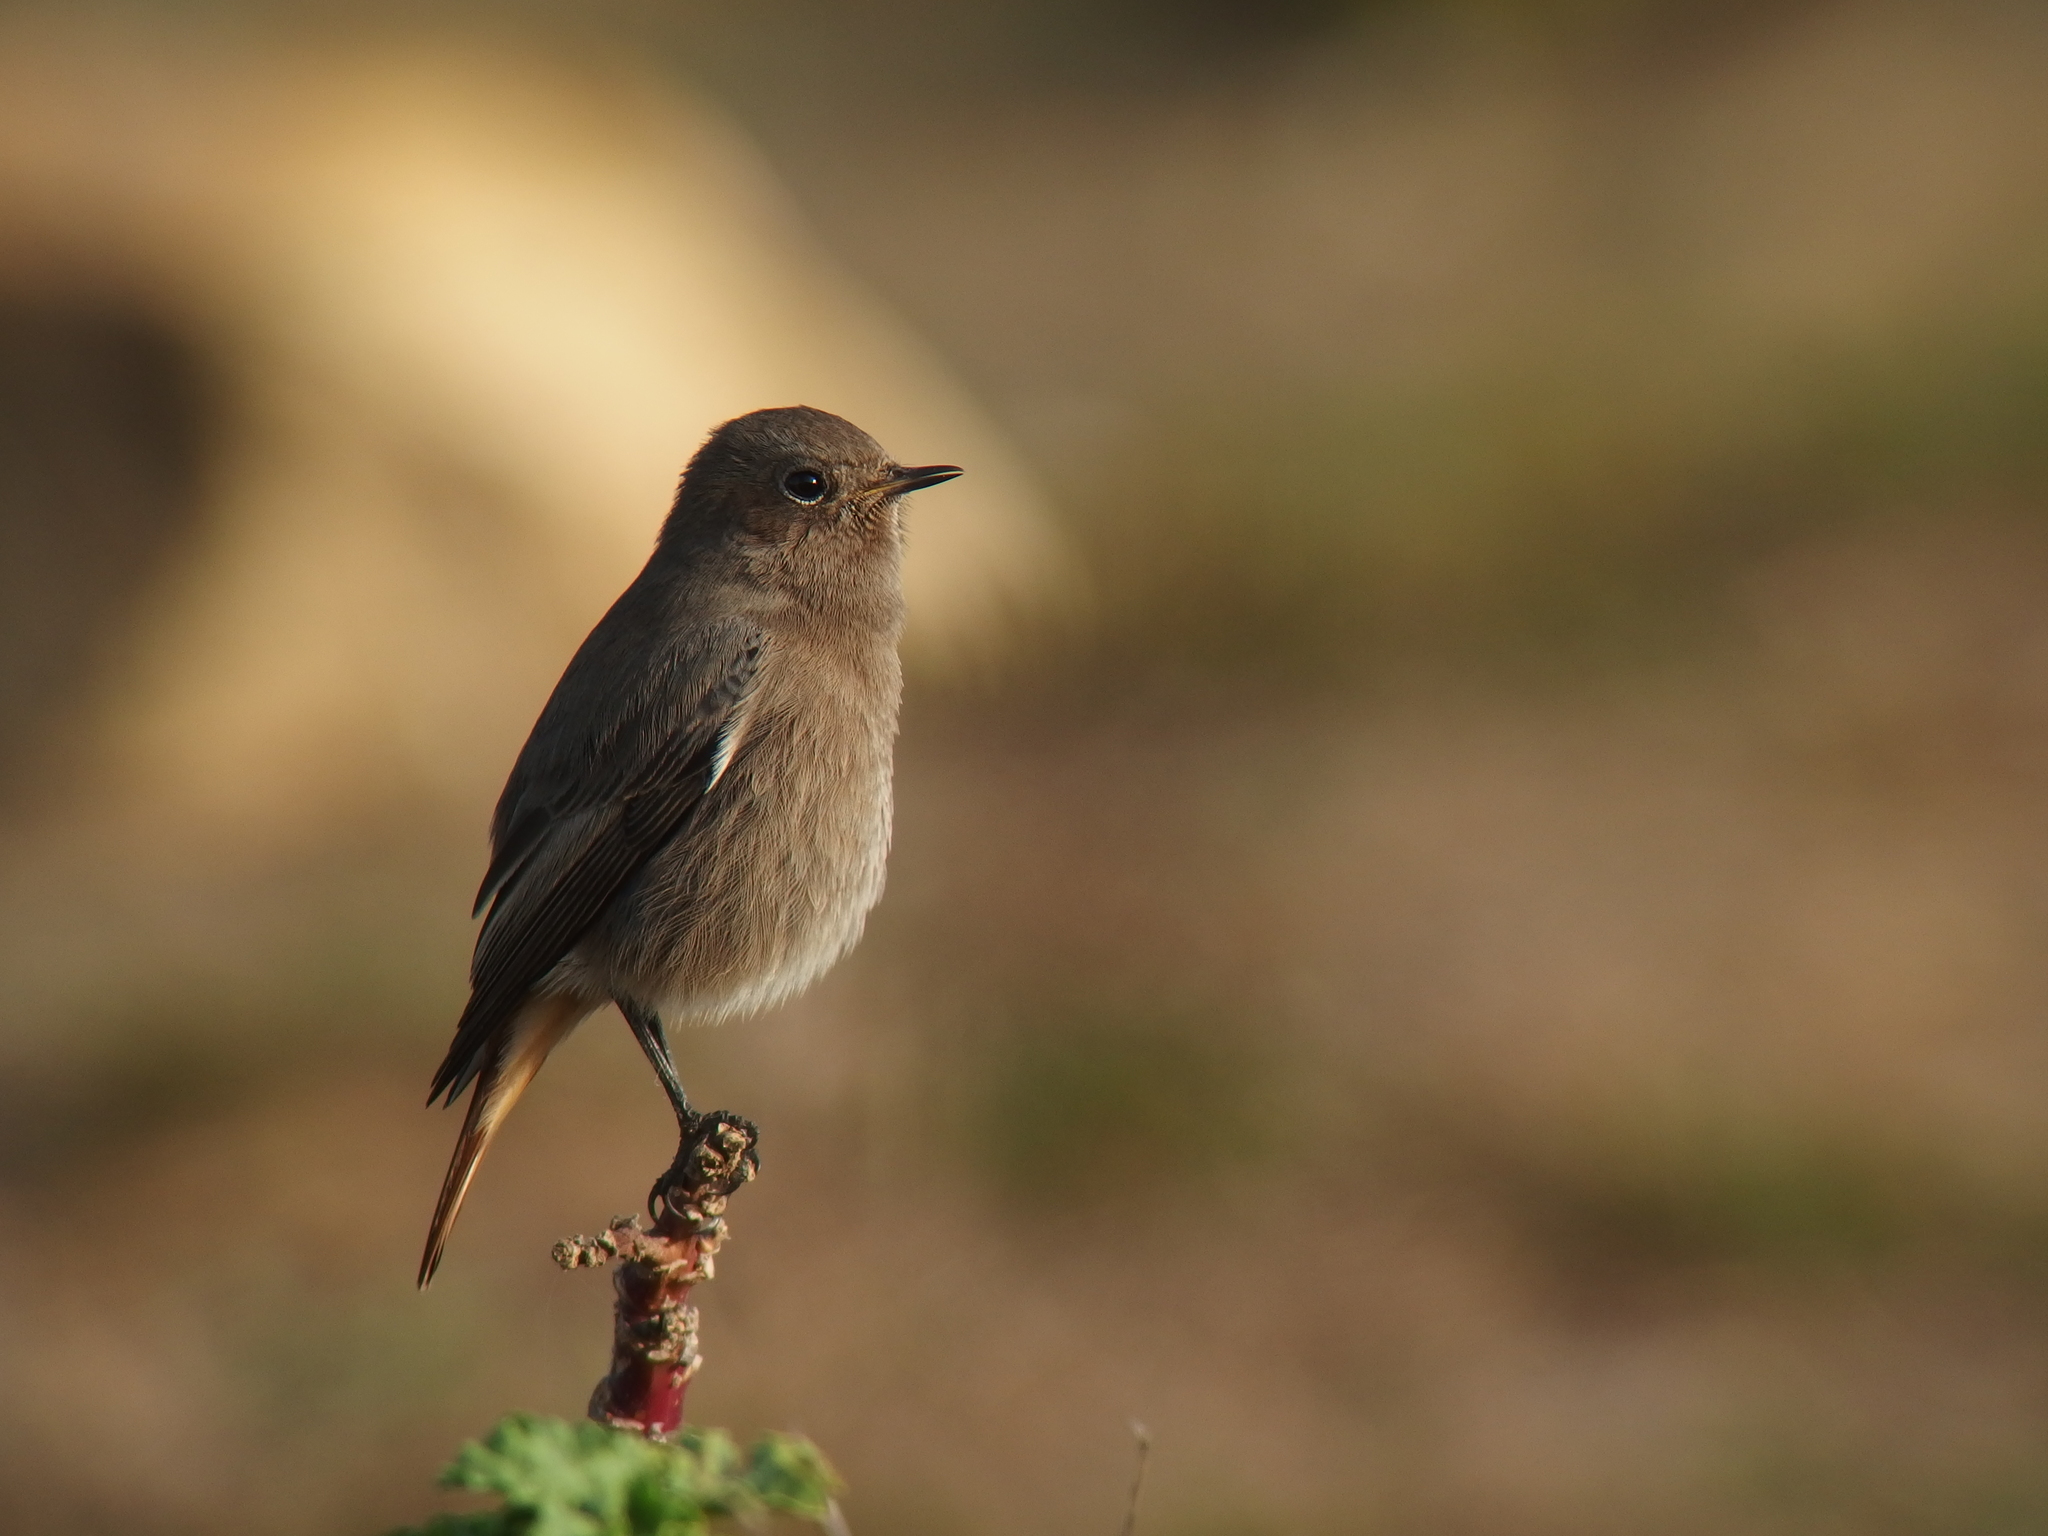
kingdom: Animalia
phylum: Chordata
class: Aves
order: Passeriformes
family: Muscicapidae
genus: Phoenicurus
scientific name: Phoenicurus ochruros
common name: Black redstart
